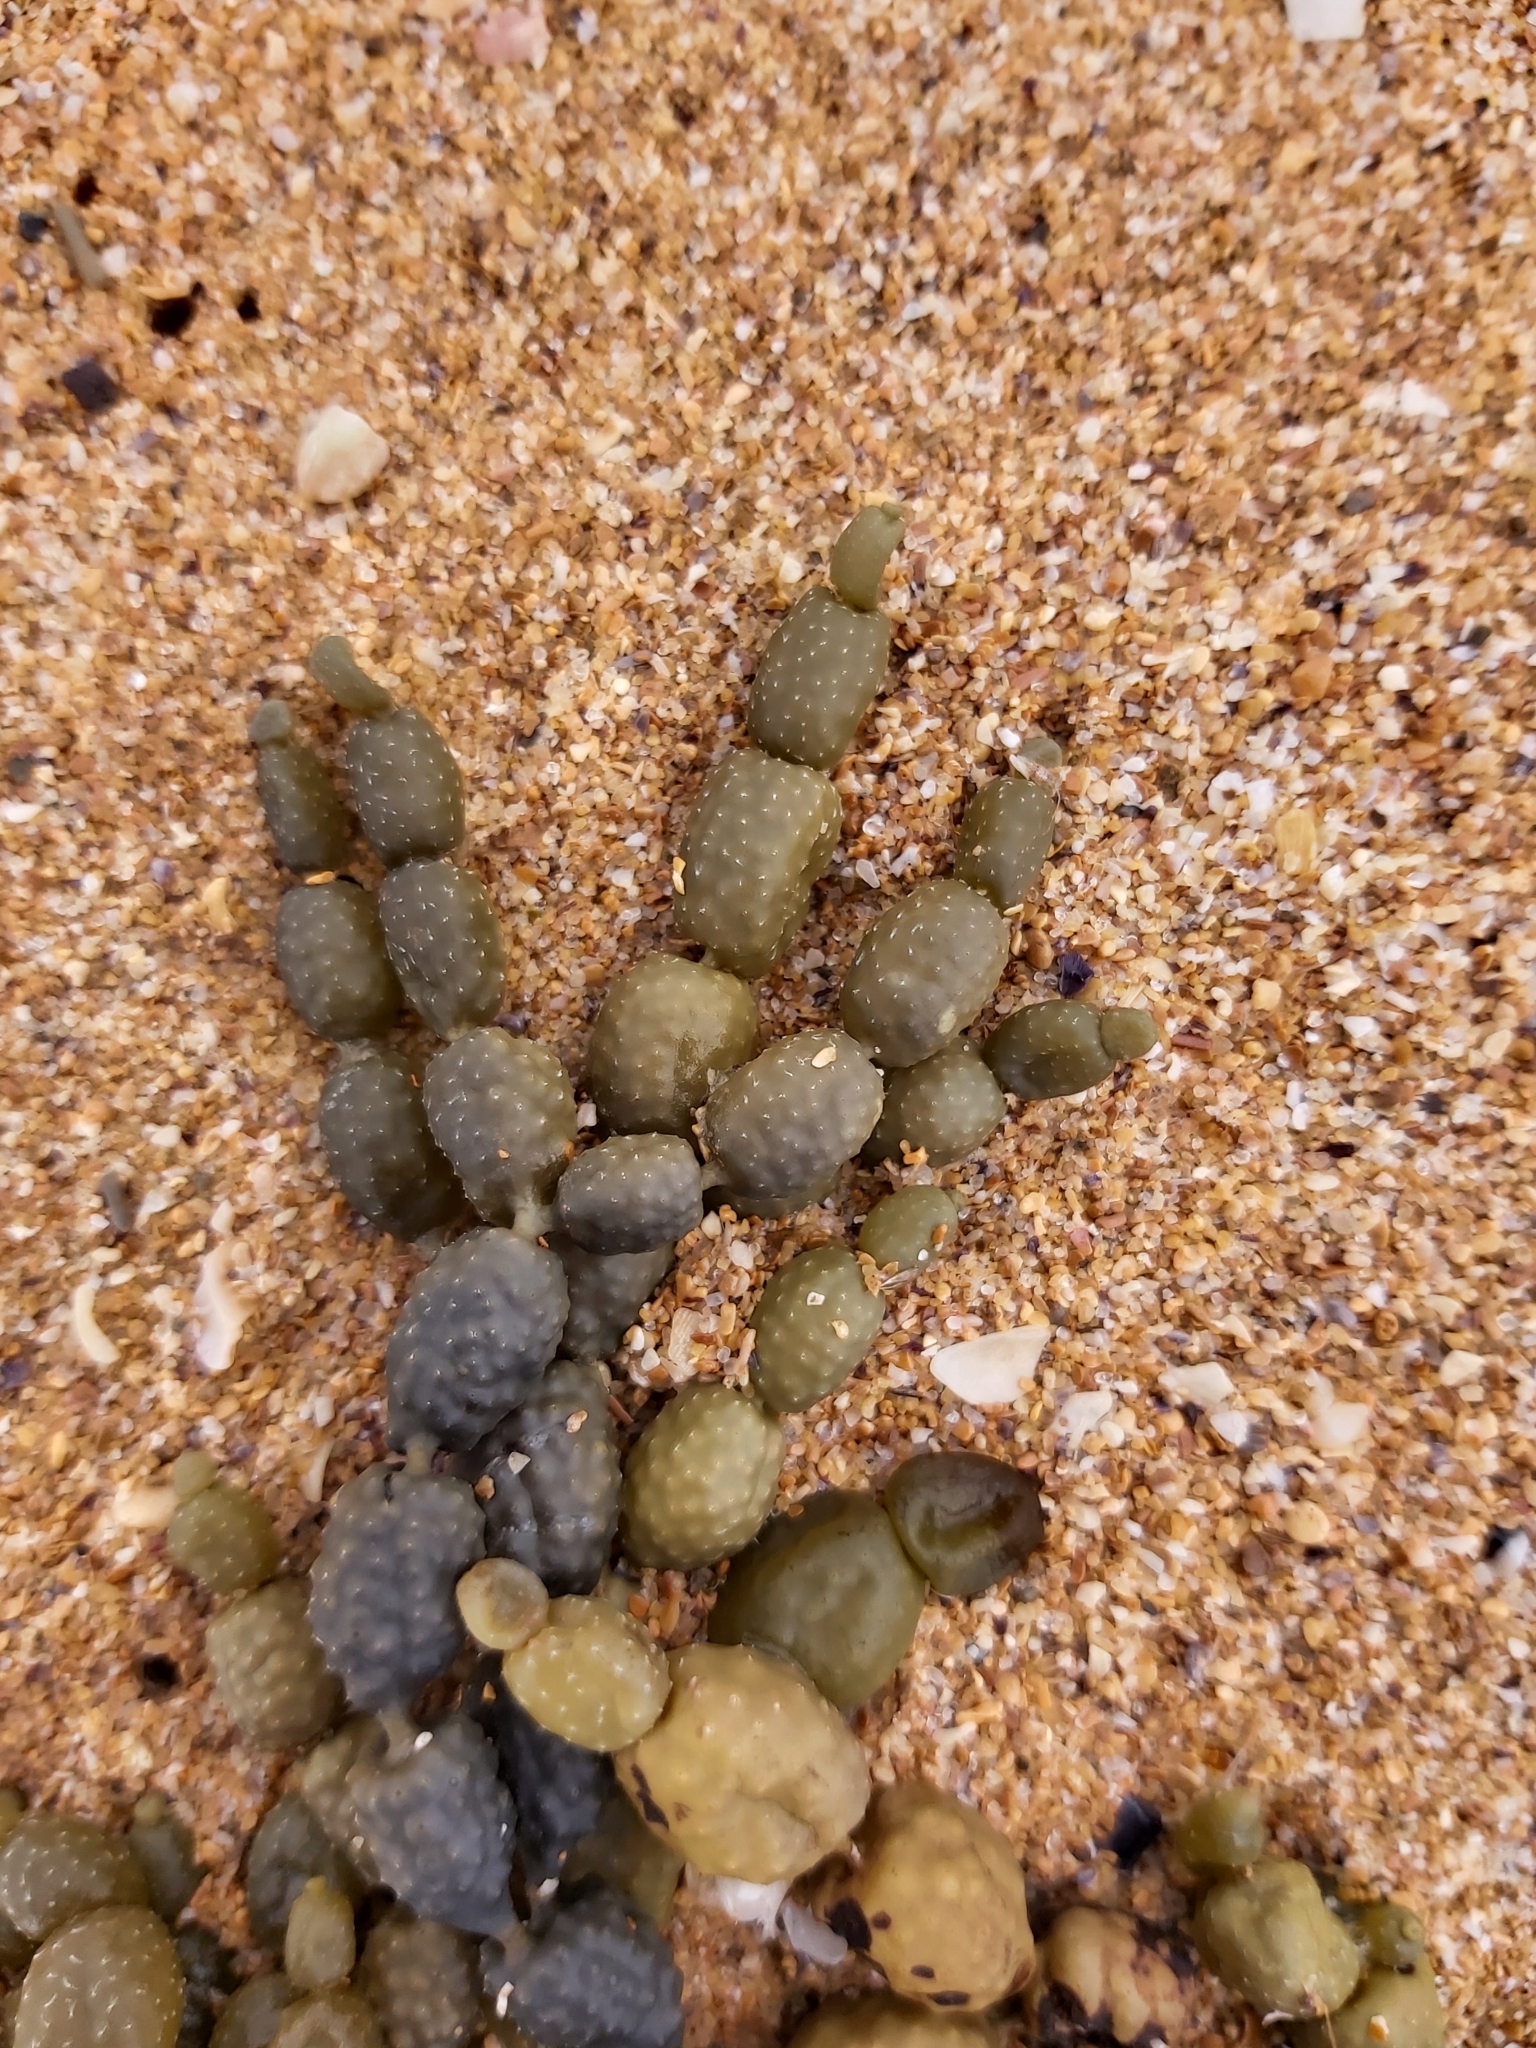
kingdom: Chromista
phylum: Ochrophyta
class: Phaeophyceae
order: Fucales
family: Hormosiraceae
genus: Hormosira
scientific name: Hormosira banksii
